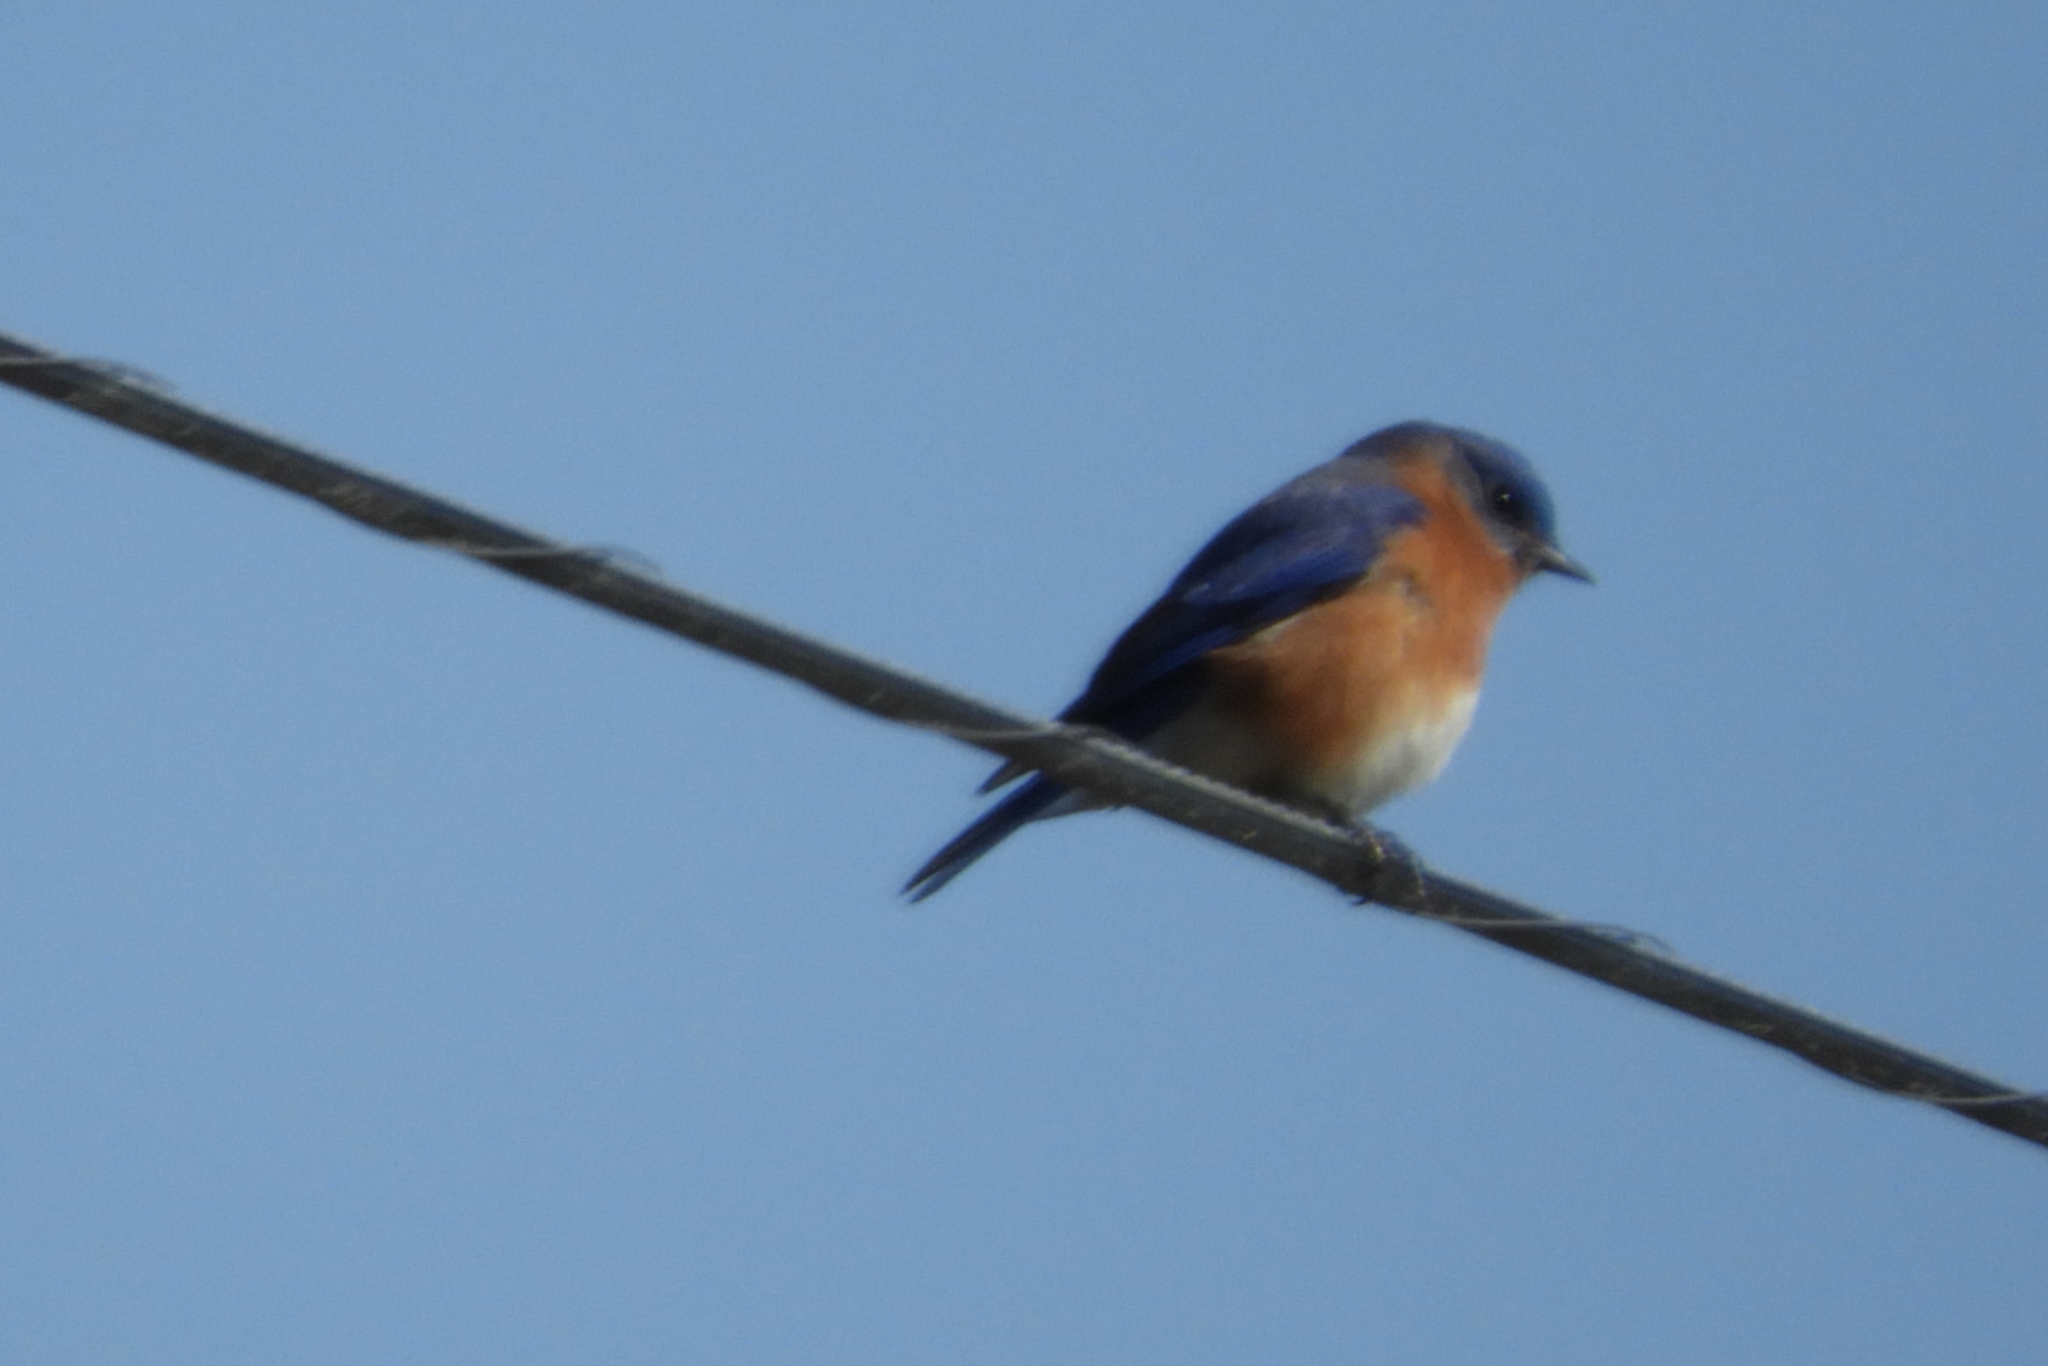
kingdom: Animalia
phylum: Chordata
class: Aves
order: Passeriformes
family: Turdidae
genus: Sialia
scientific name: Sialia sialis
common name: Eastern bluebird
